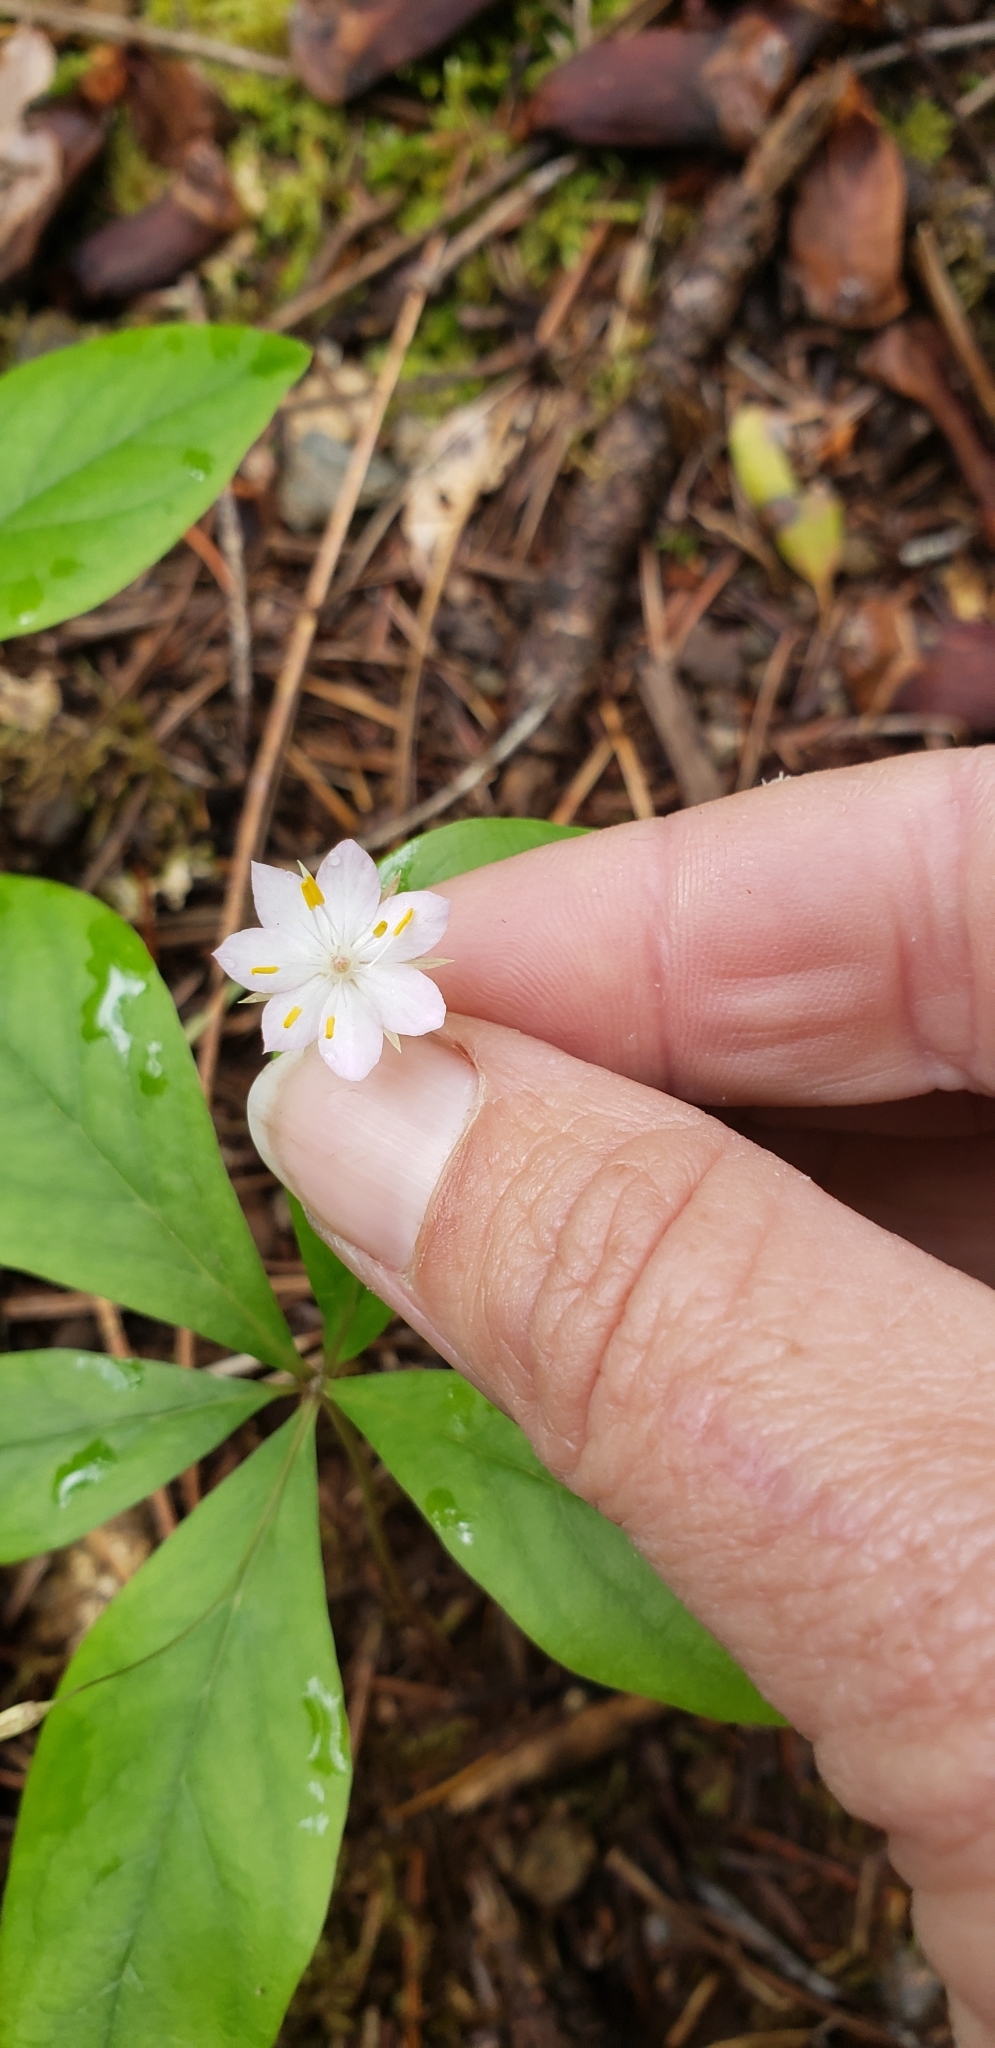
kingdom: Plantae
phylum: Tracheophyta
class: Magnoliopsida
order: Ericales
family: Primulaceae
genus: Lysimachia
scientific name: Lysimachia latifolia
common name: Pacific starflower
